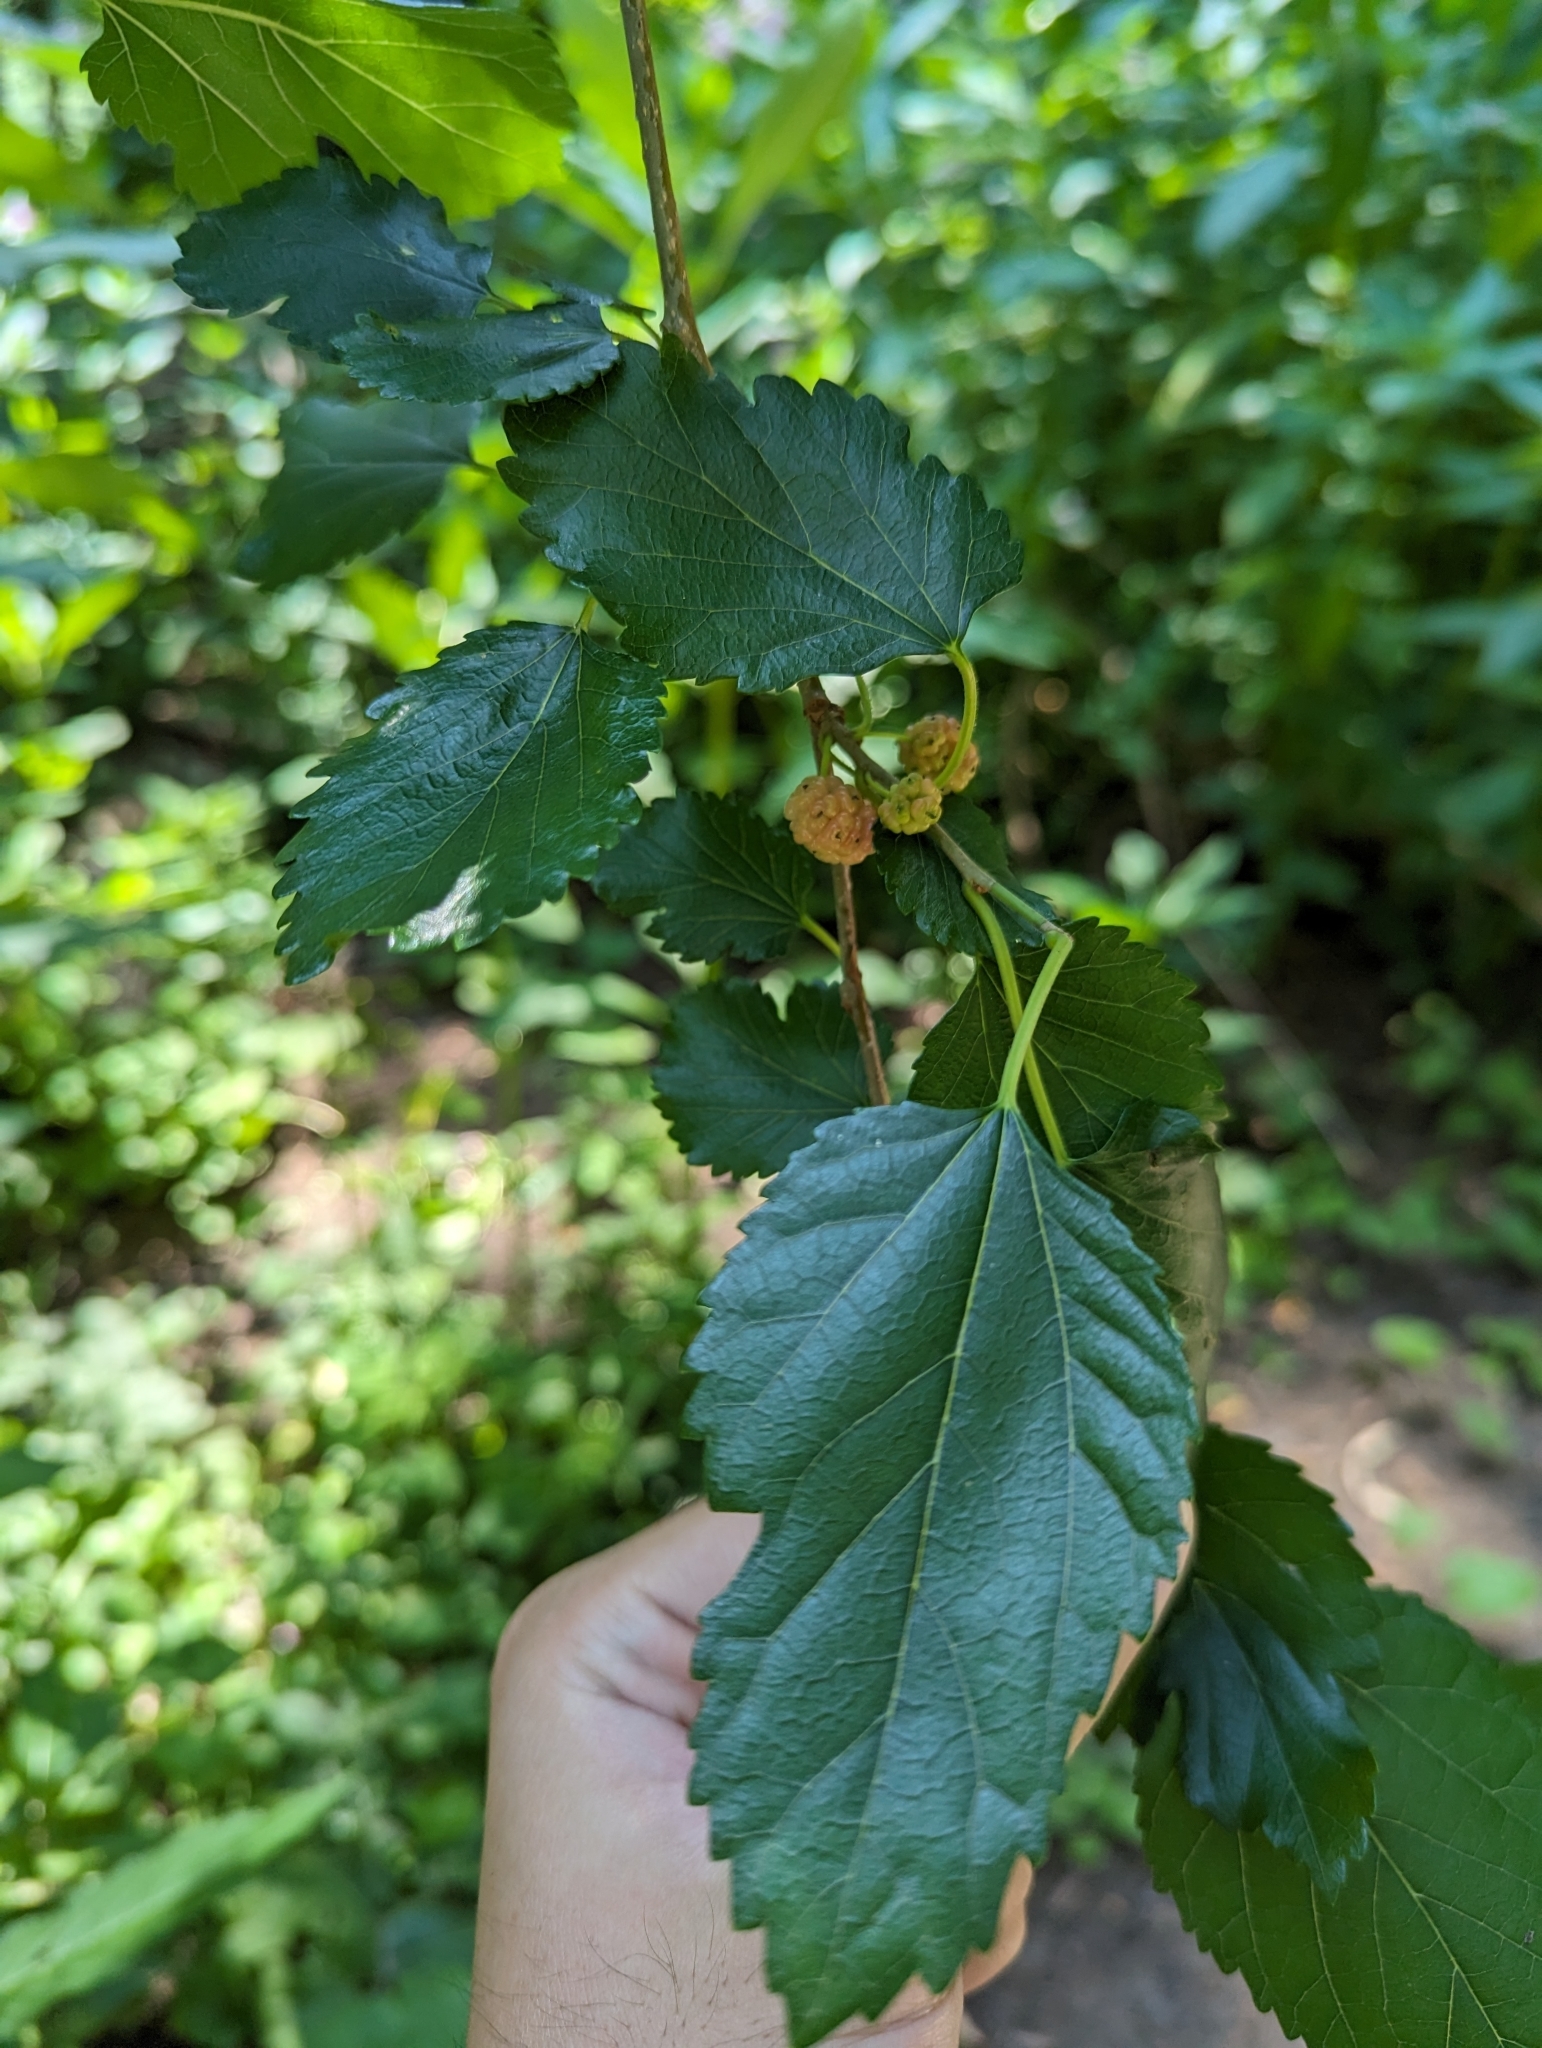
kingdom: Plantae
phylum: Tracheophyta
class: Magnoliopsida
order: Rosales
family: Moraceae
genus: Morus
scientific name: Morus alba
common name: White mulberry
